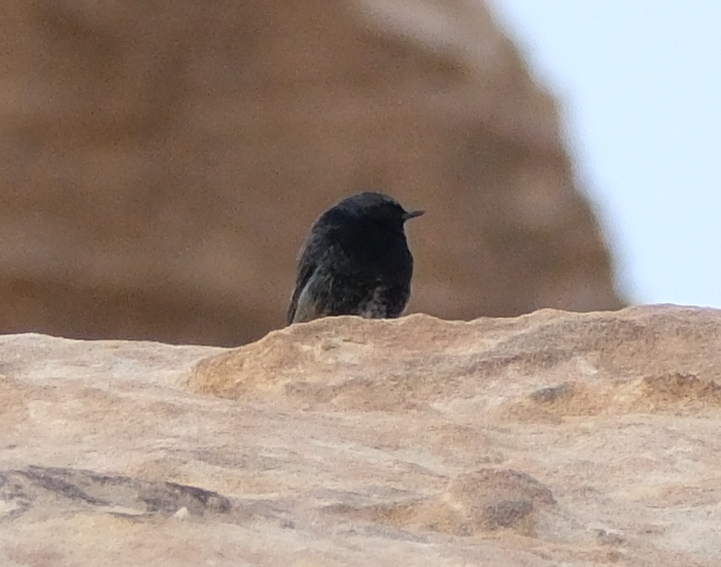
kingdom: Animalia
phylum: Chordata
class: Aves
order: Passeriformes
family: Muscicapidae
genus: Phoenicurus
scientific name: Phoenicurus ochruros
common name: Black redstart
